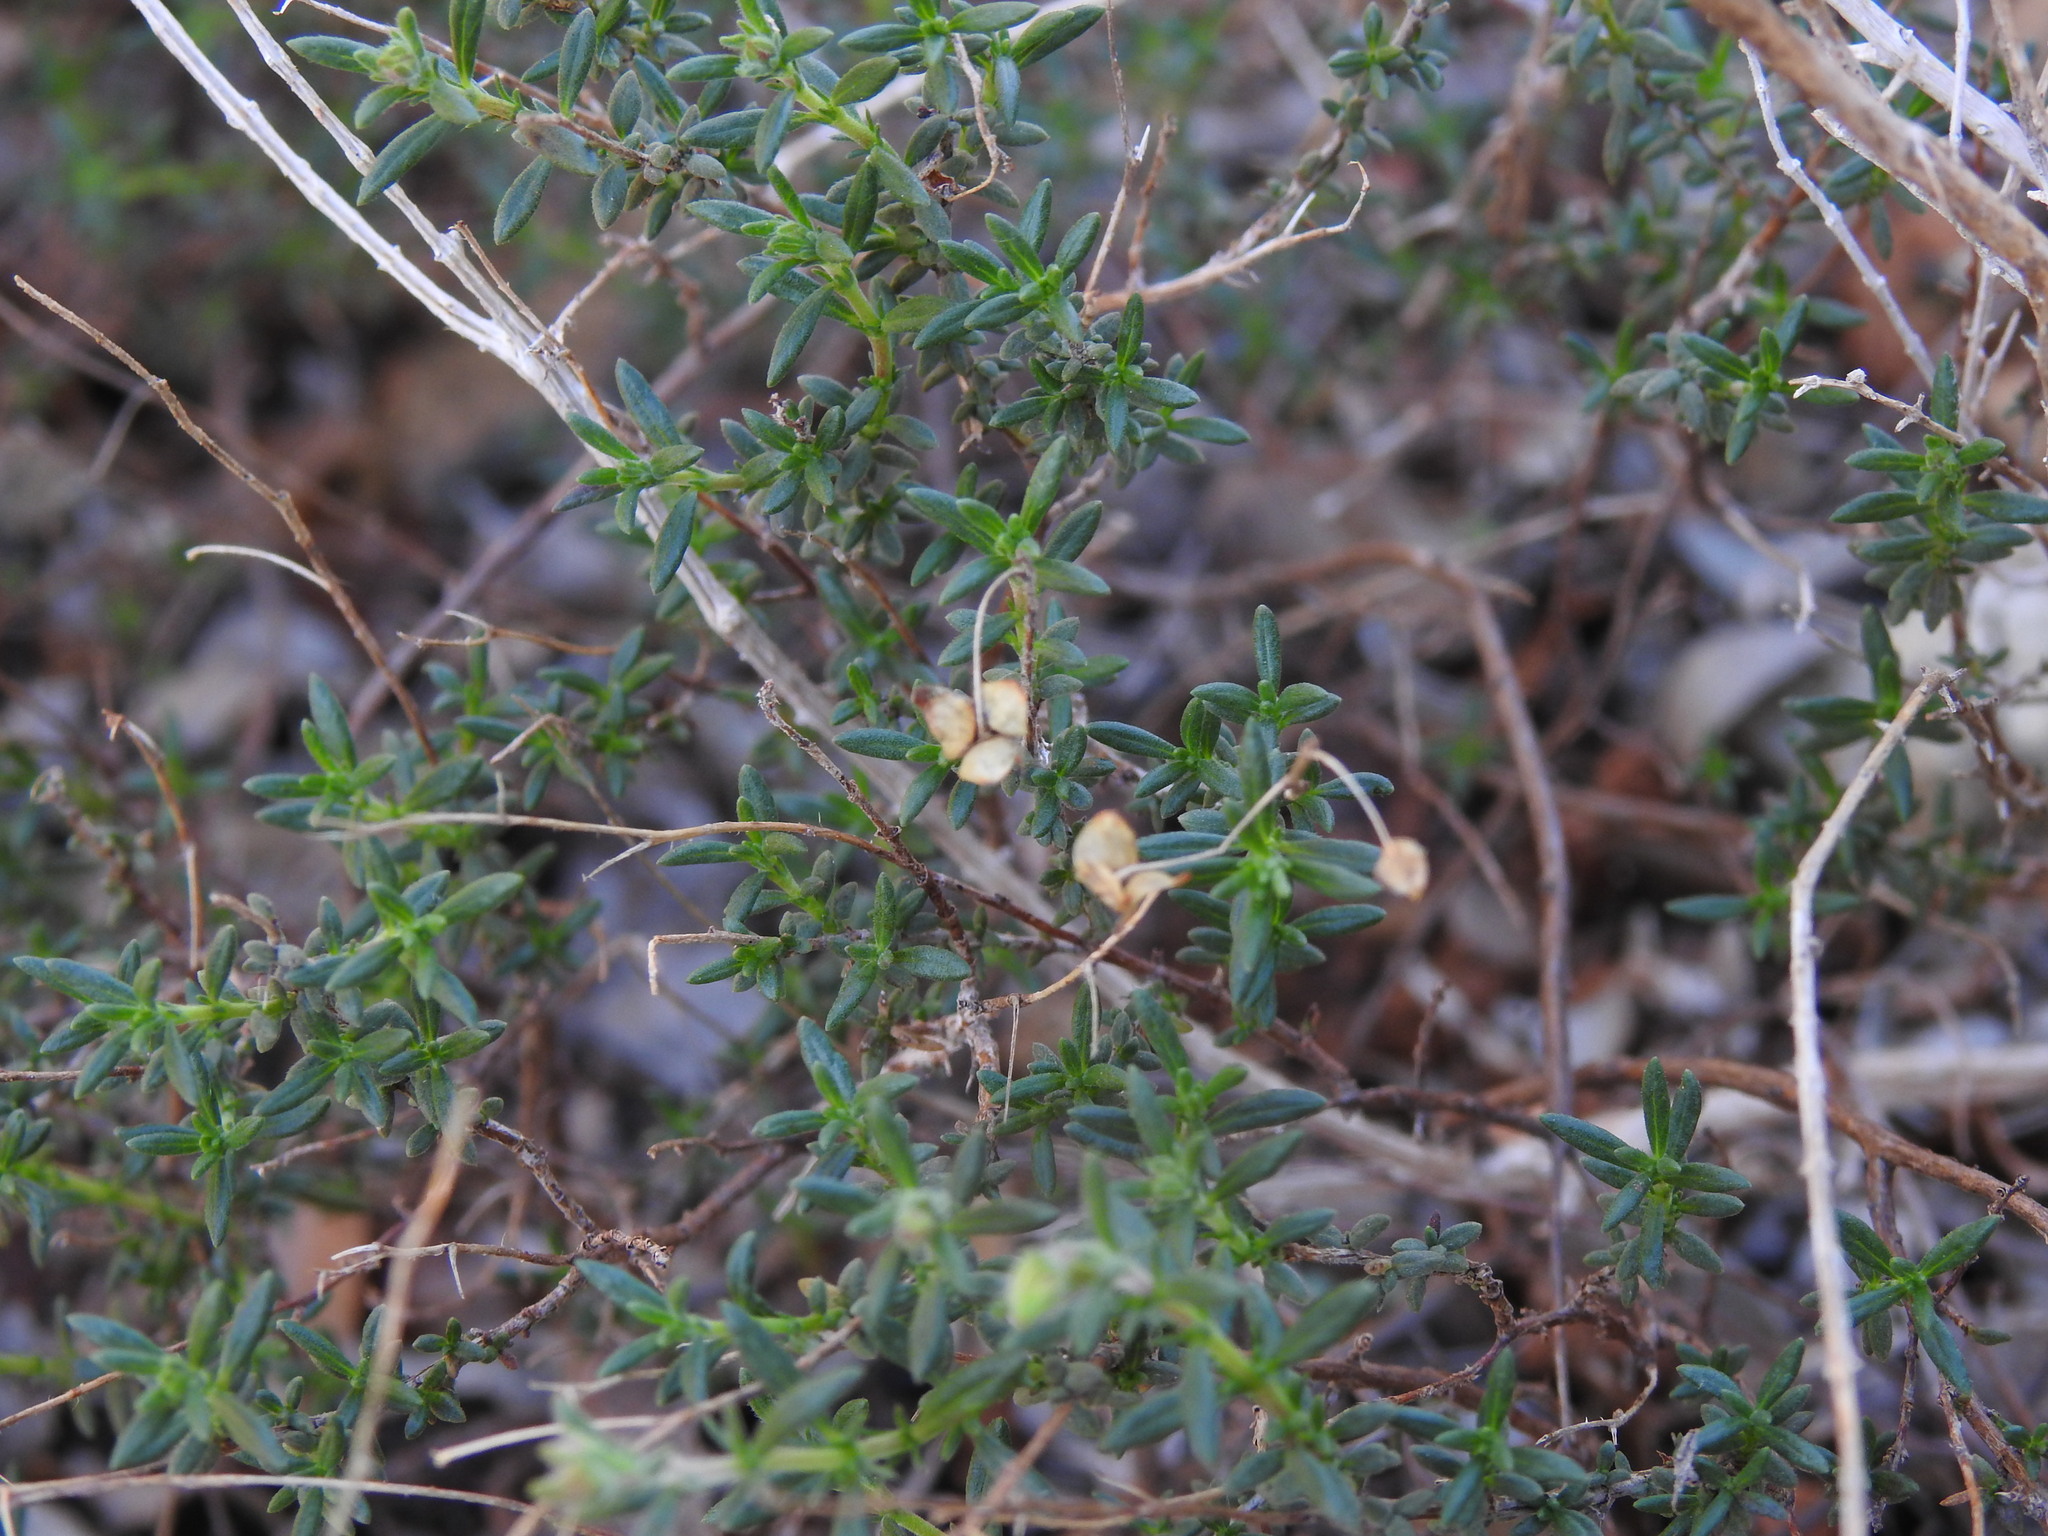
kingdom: Plantae
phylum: Tracheophyta
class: Magnoliopsida
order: Malvales
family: Cistaceae
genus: Fumana
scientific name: Fumana thymifolia
